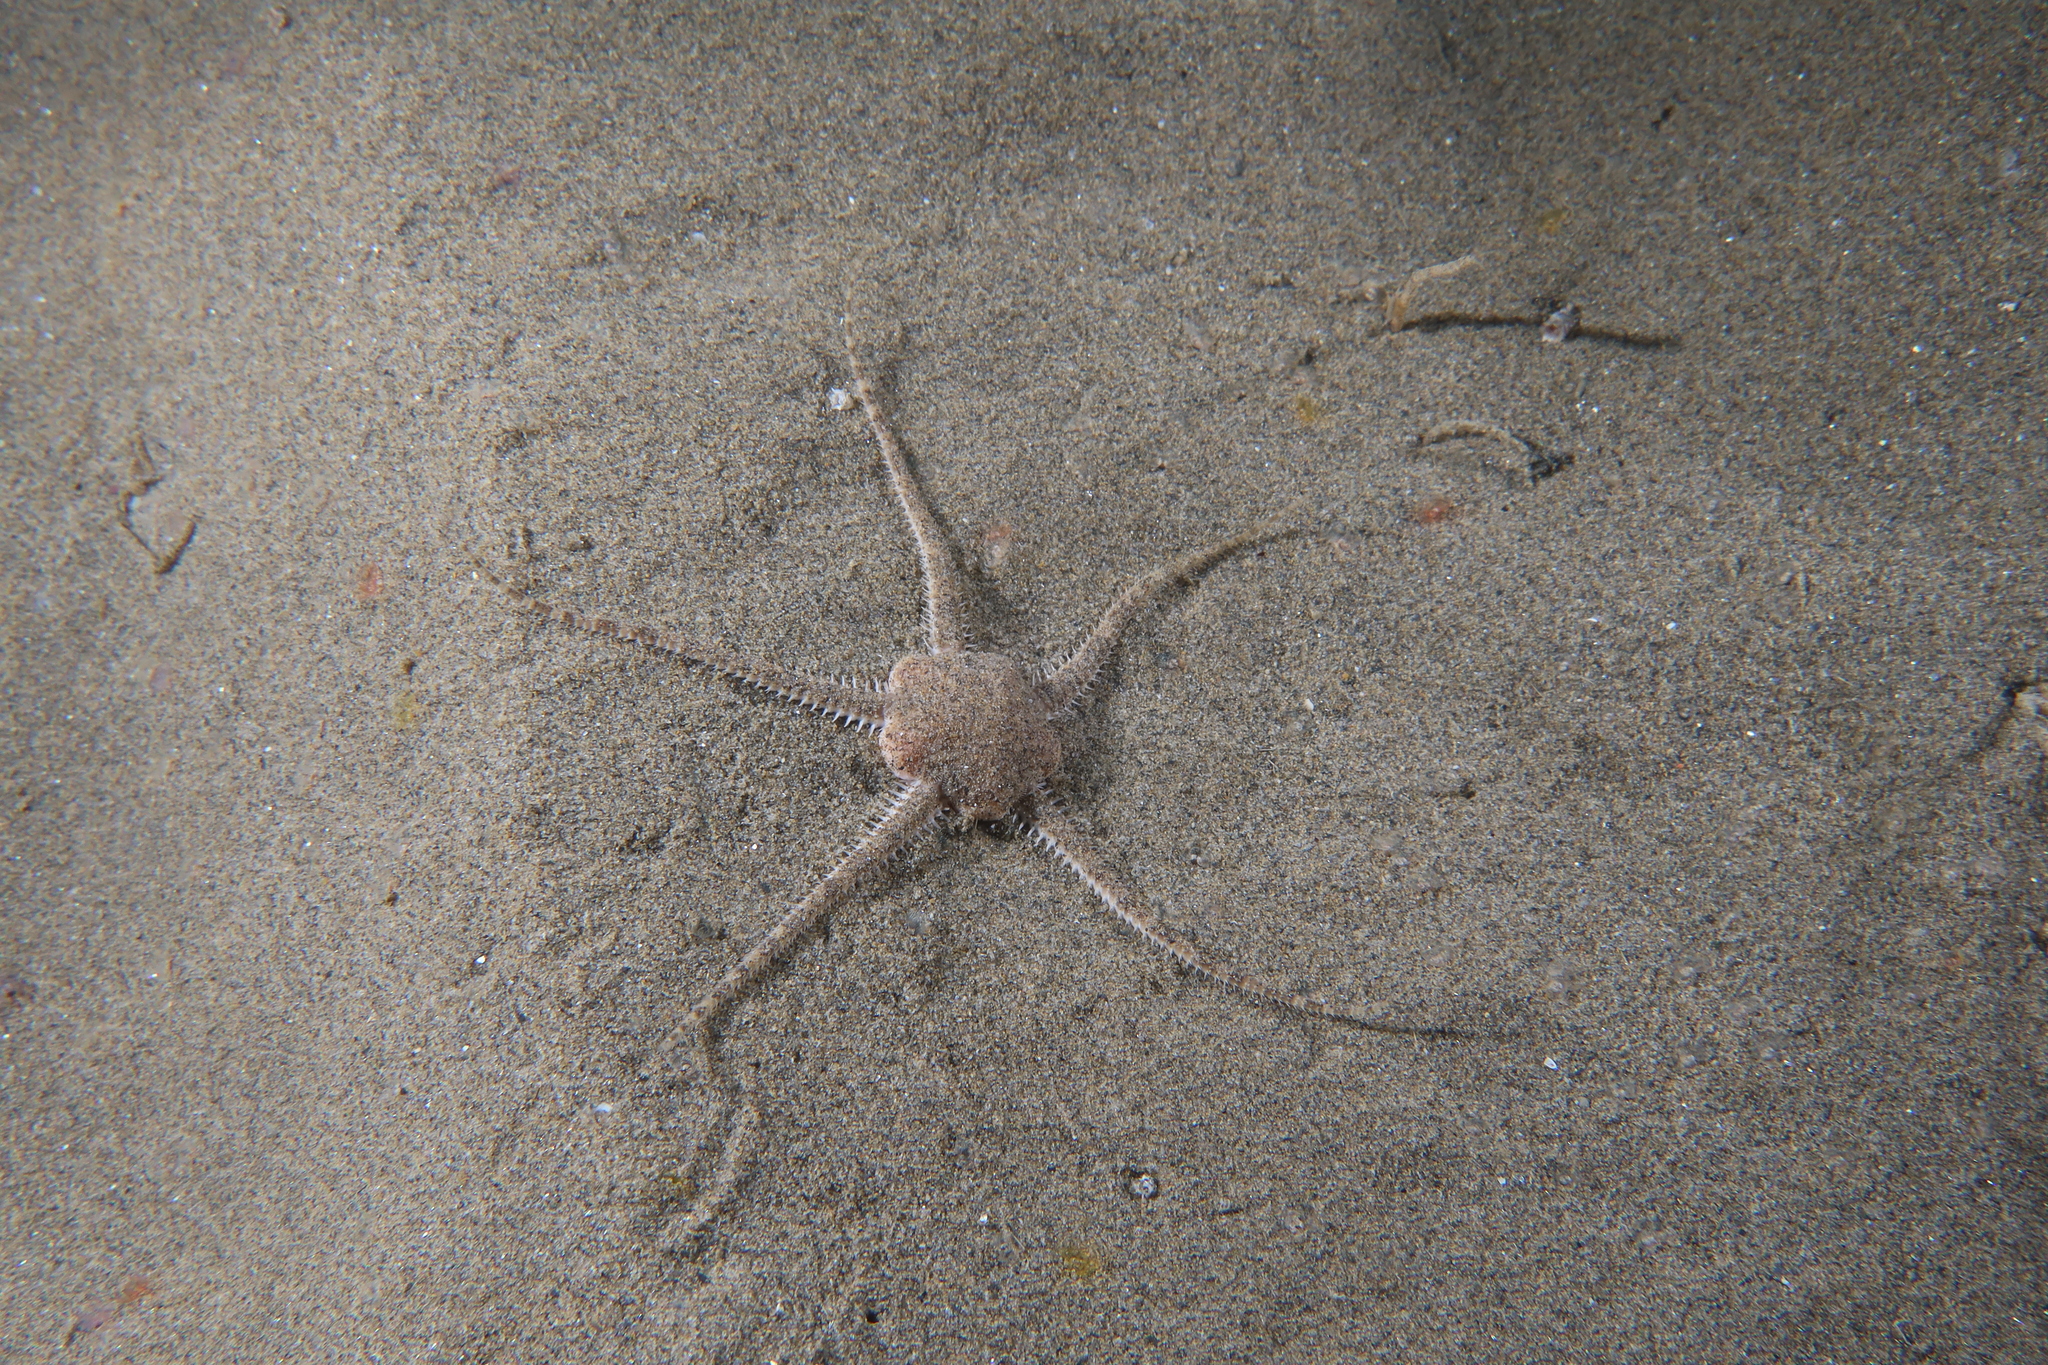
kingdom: Animalia
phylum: Echinodermata
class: Ophiuroidea
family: Ophiuridae
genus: Ophiura
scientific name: Ophiura ophiura
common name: Serpent star
